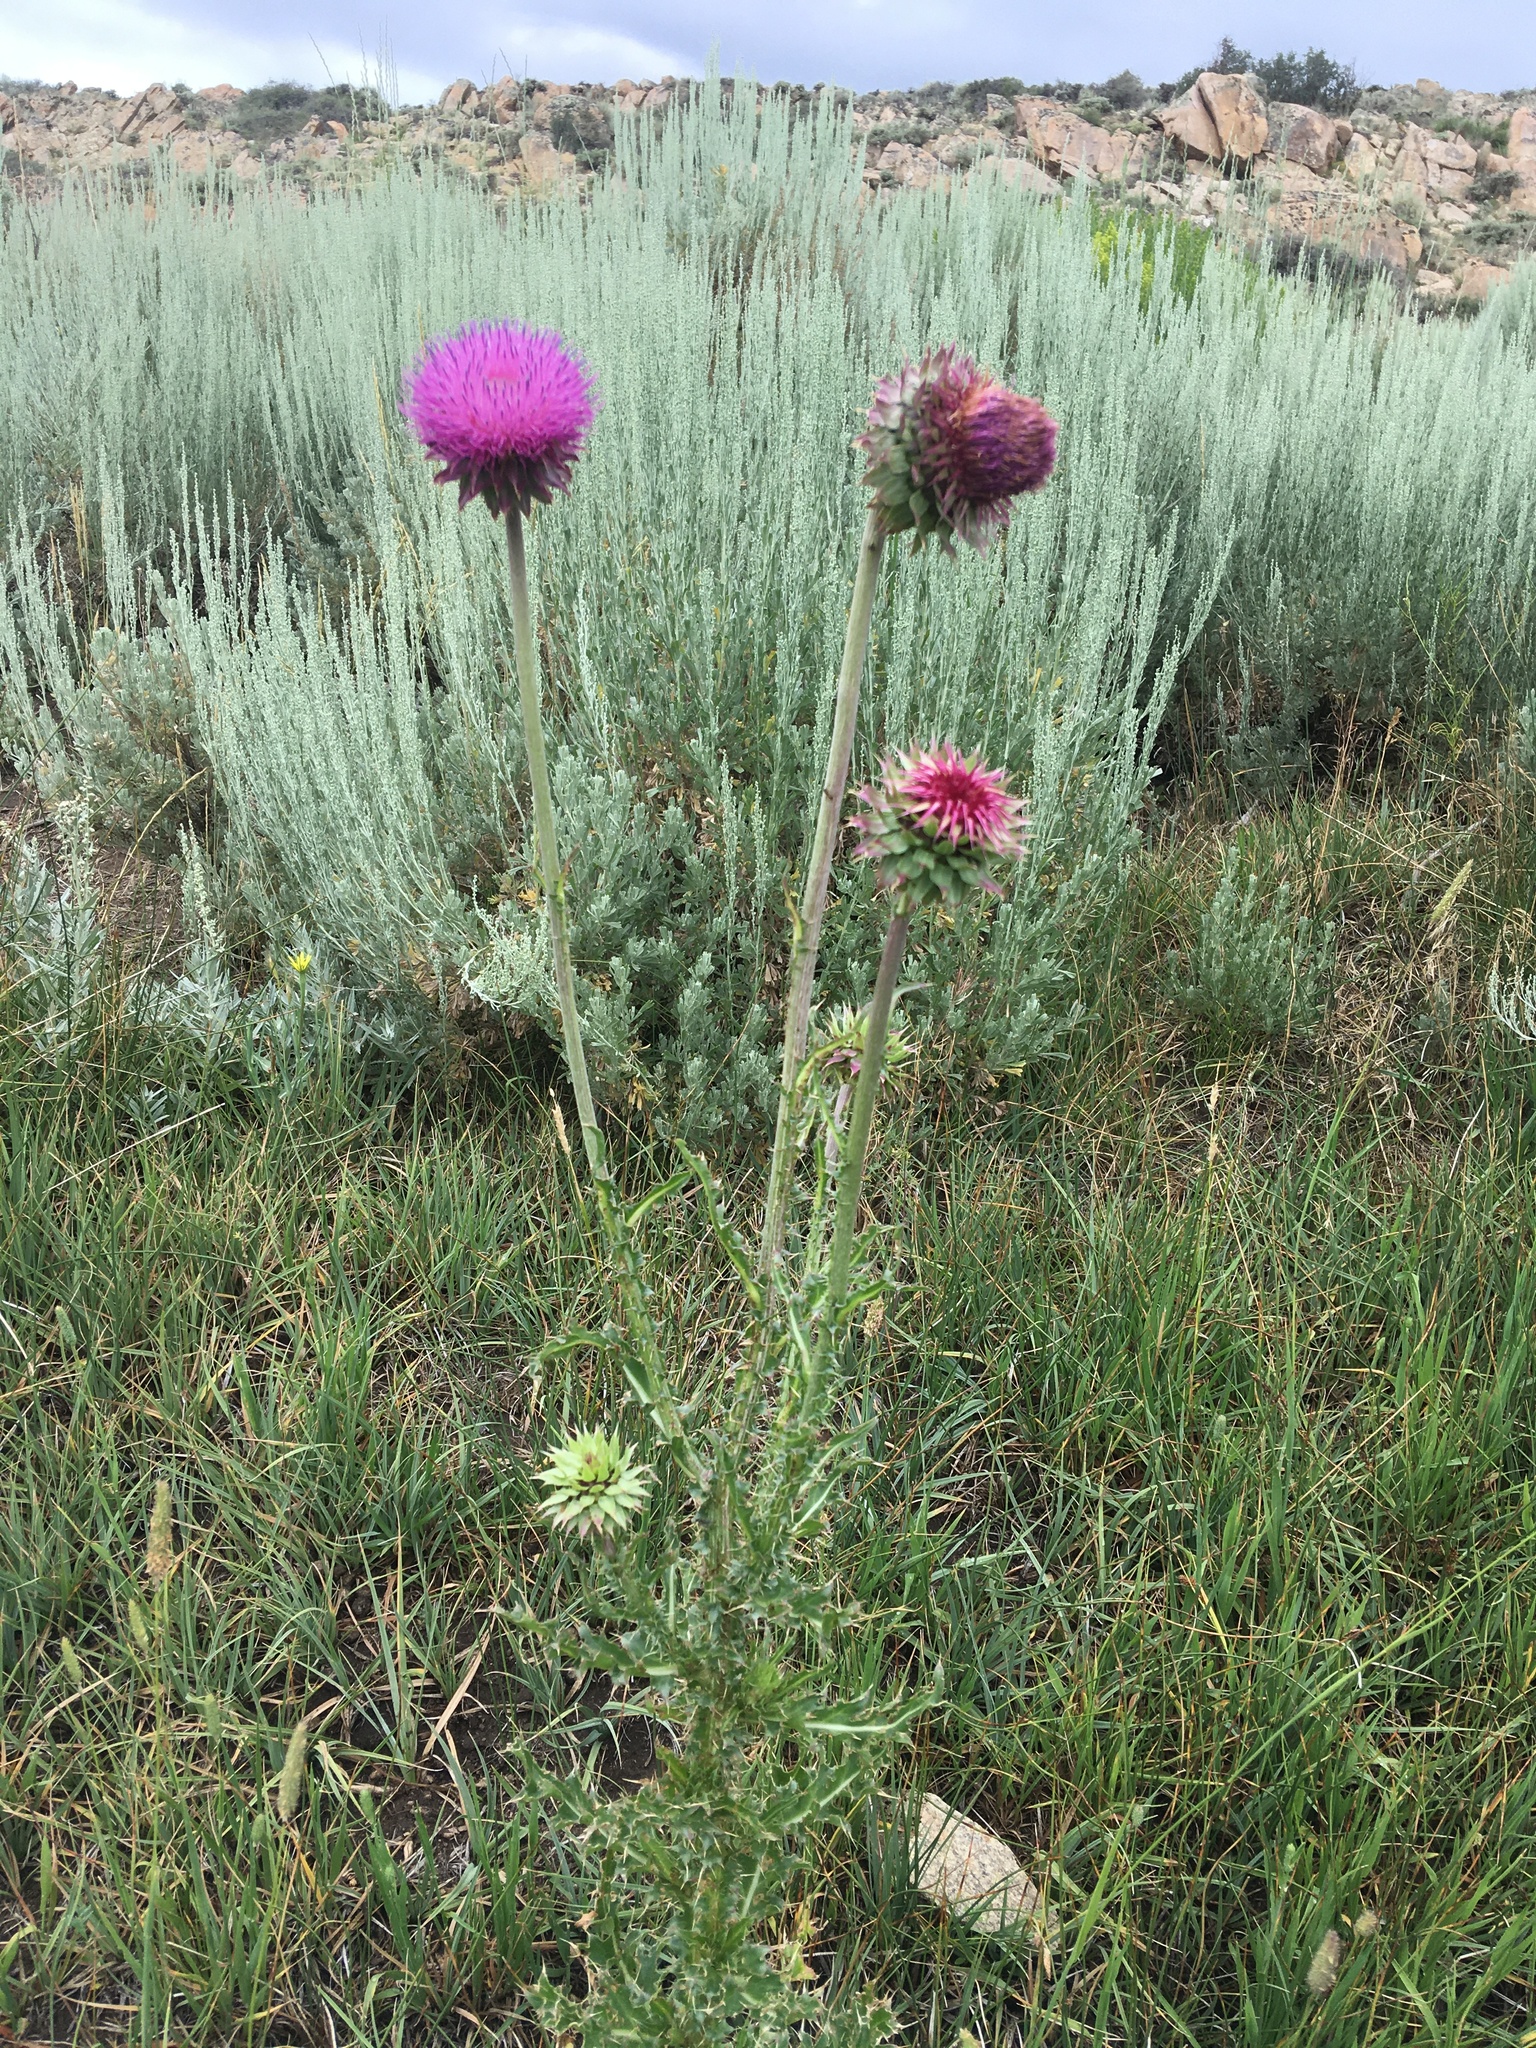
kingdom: Plantae
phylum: Tracheophyta
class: Magnoliopsida
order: Asterales
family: Asteraceae
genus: Carduus
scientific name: Carduus nutans
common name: Musk thistle
